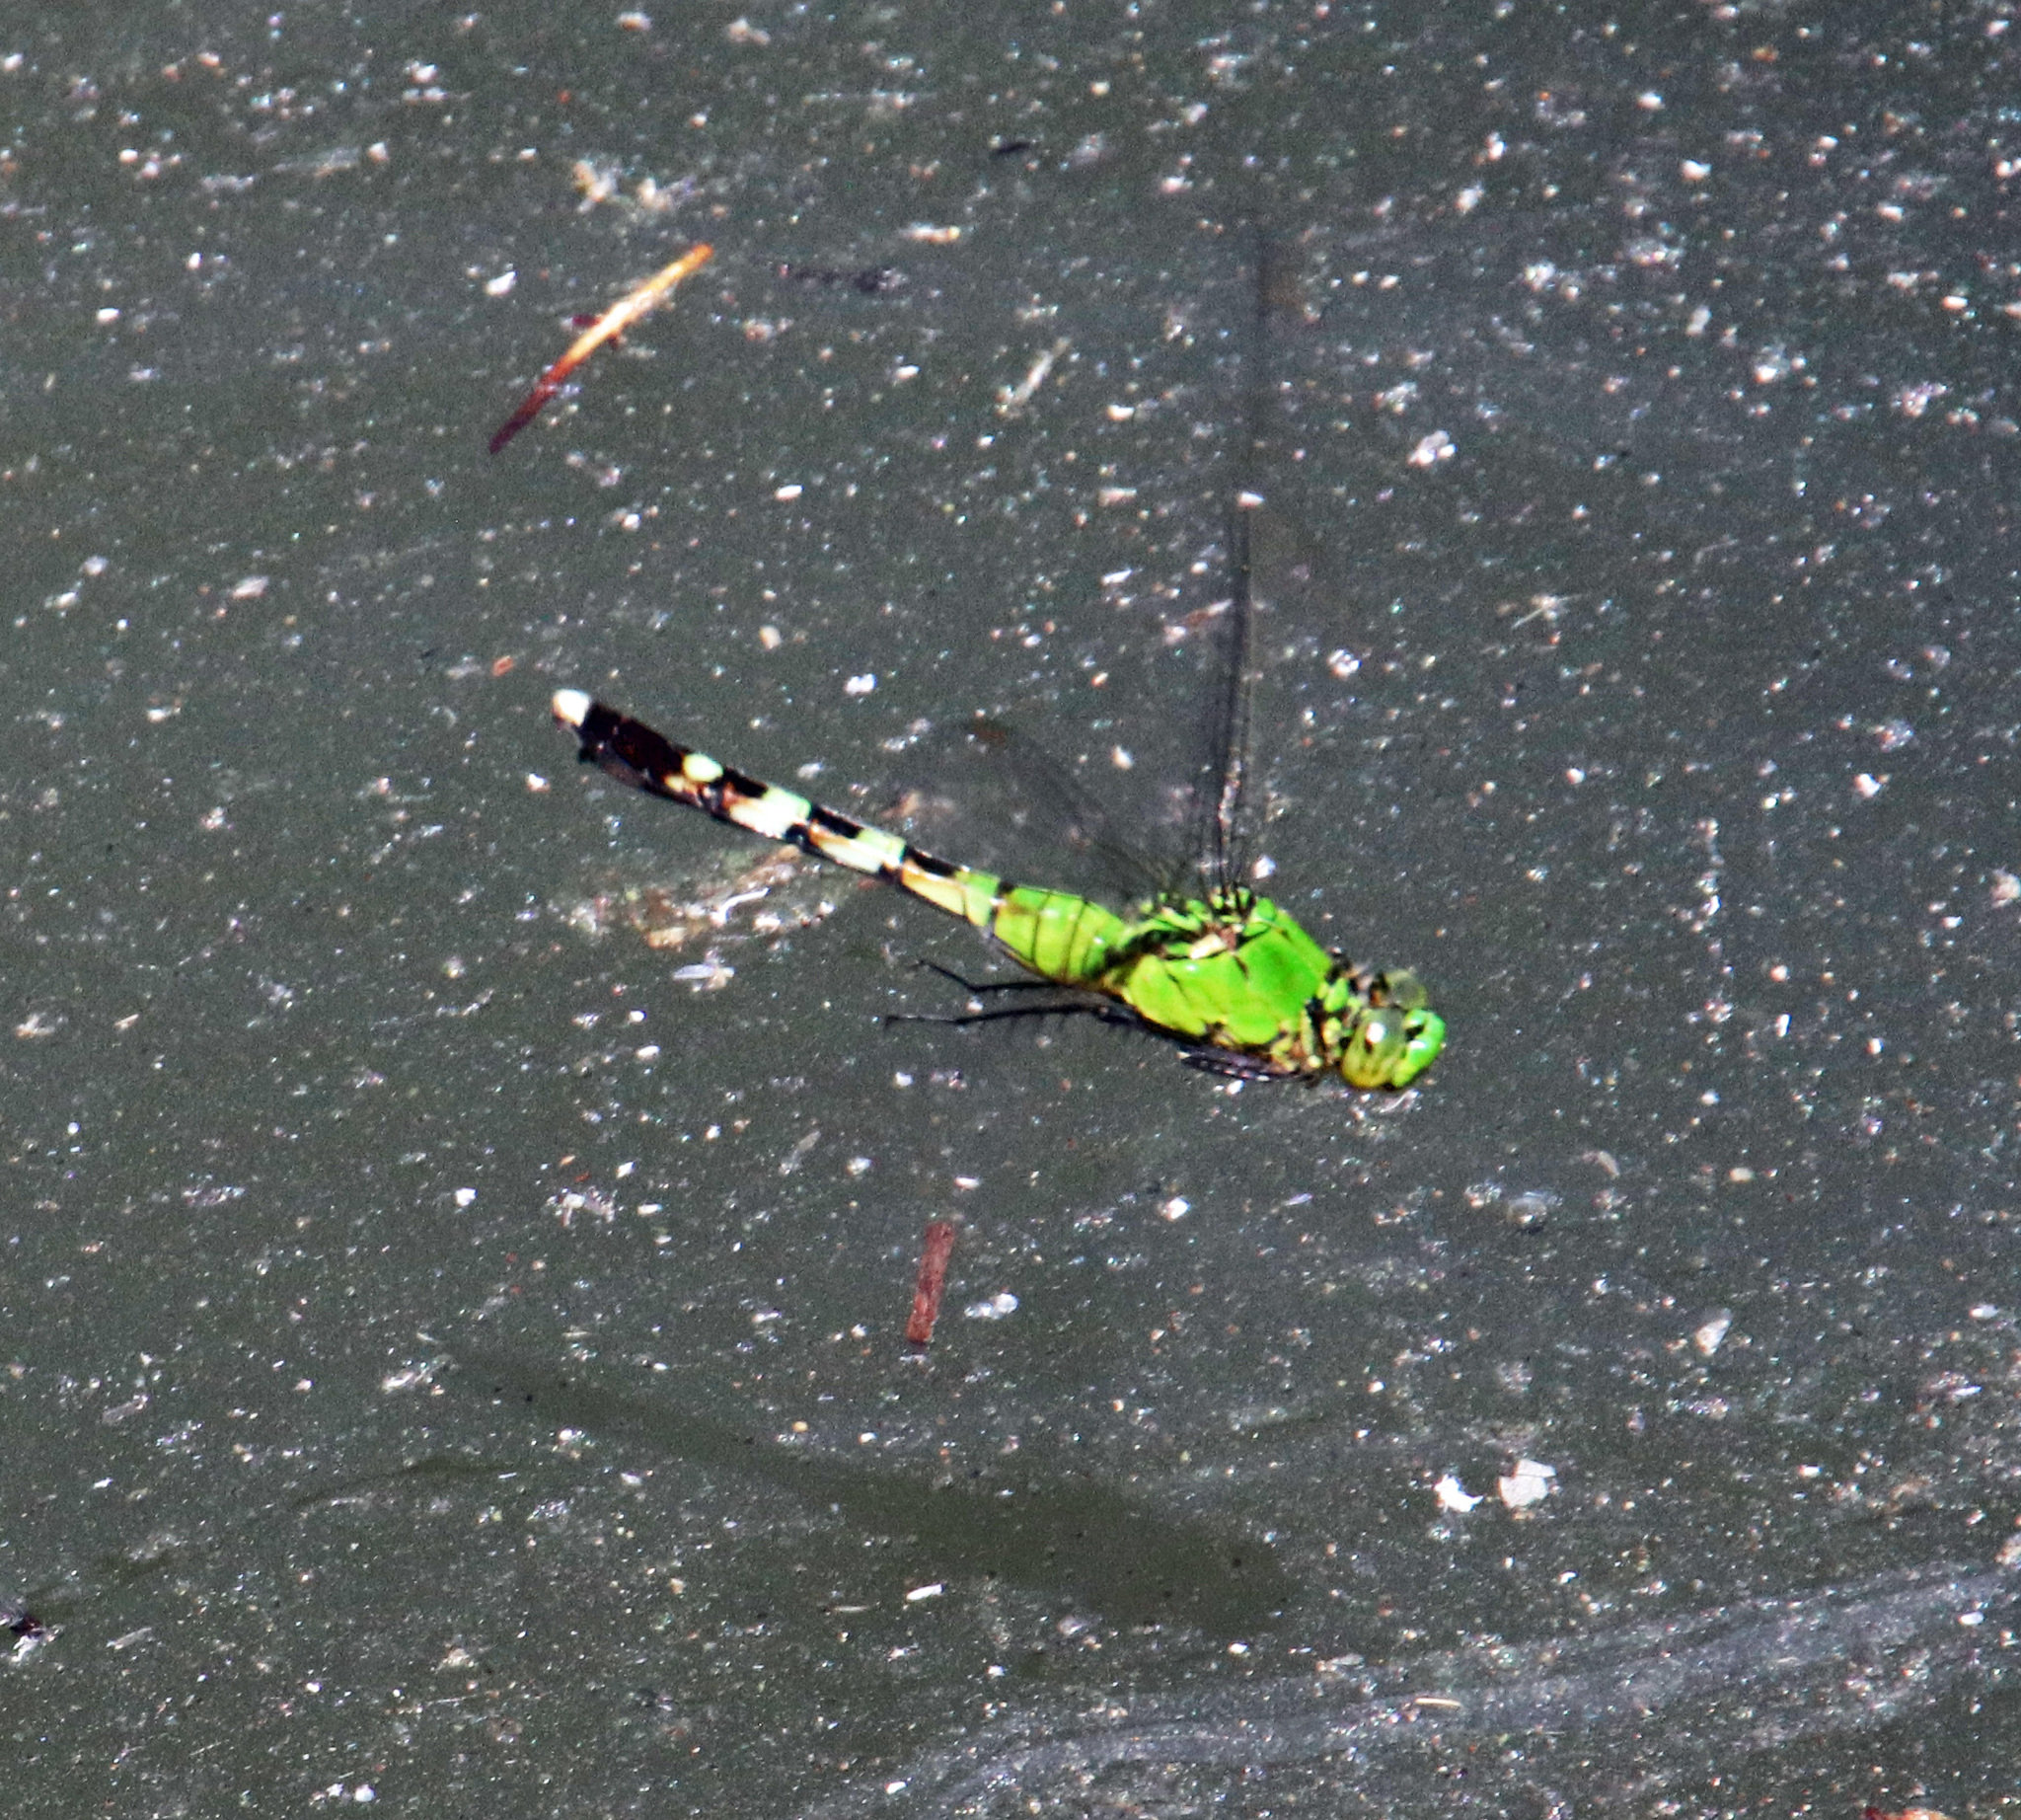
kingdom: Animalia
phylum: Arthropoda
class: Insecta
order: Odonata
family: Libellulidae
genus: Erythemis
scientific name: Erythemis simplicicollis
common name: Eastern pondhawk
